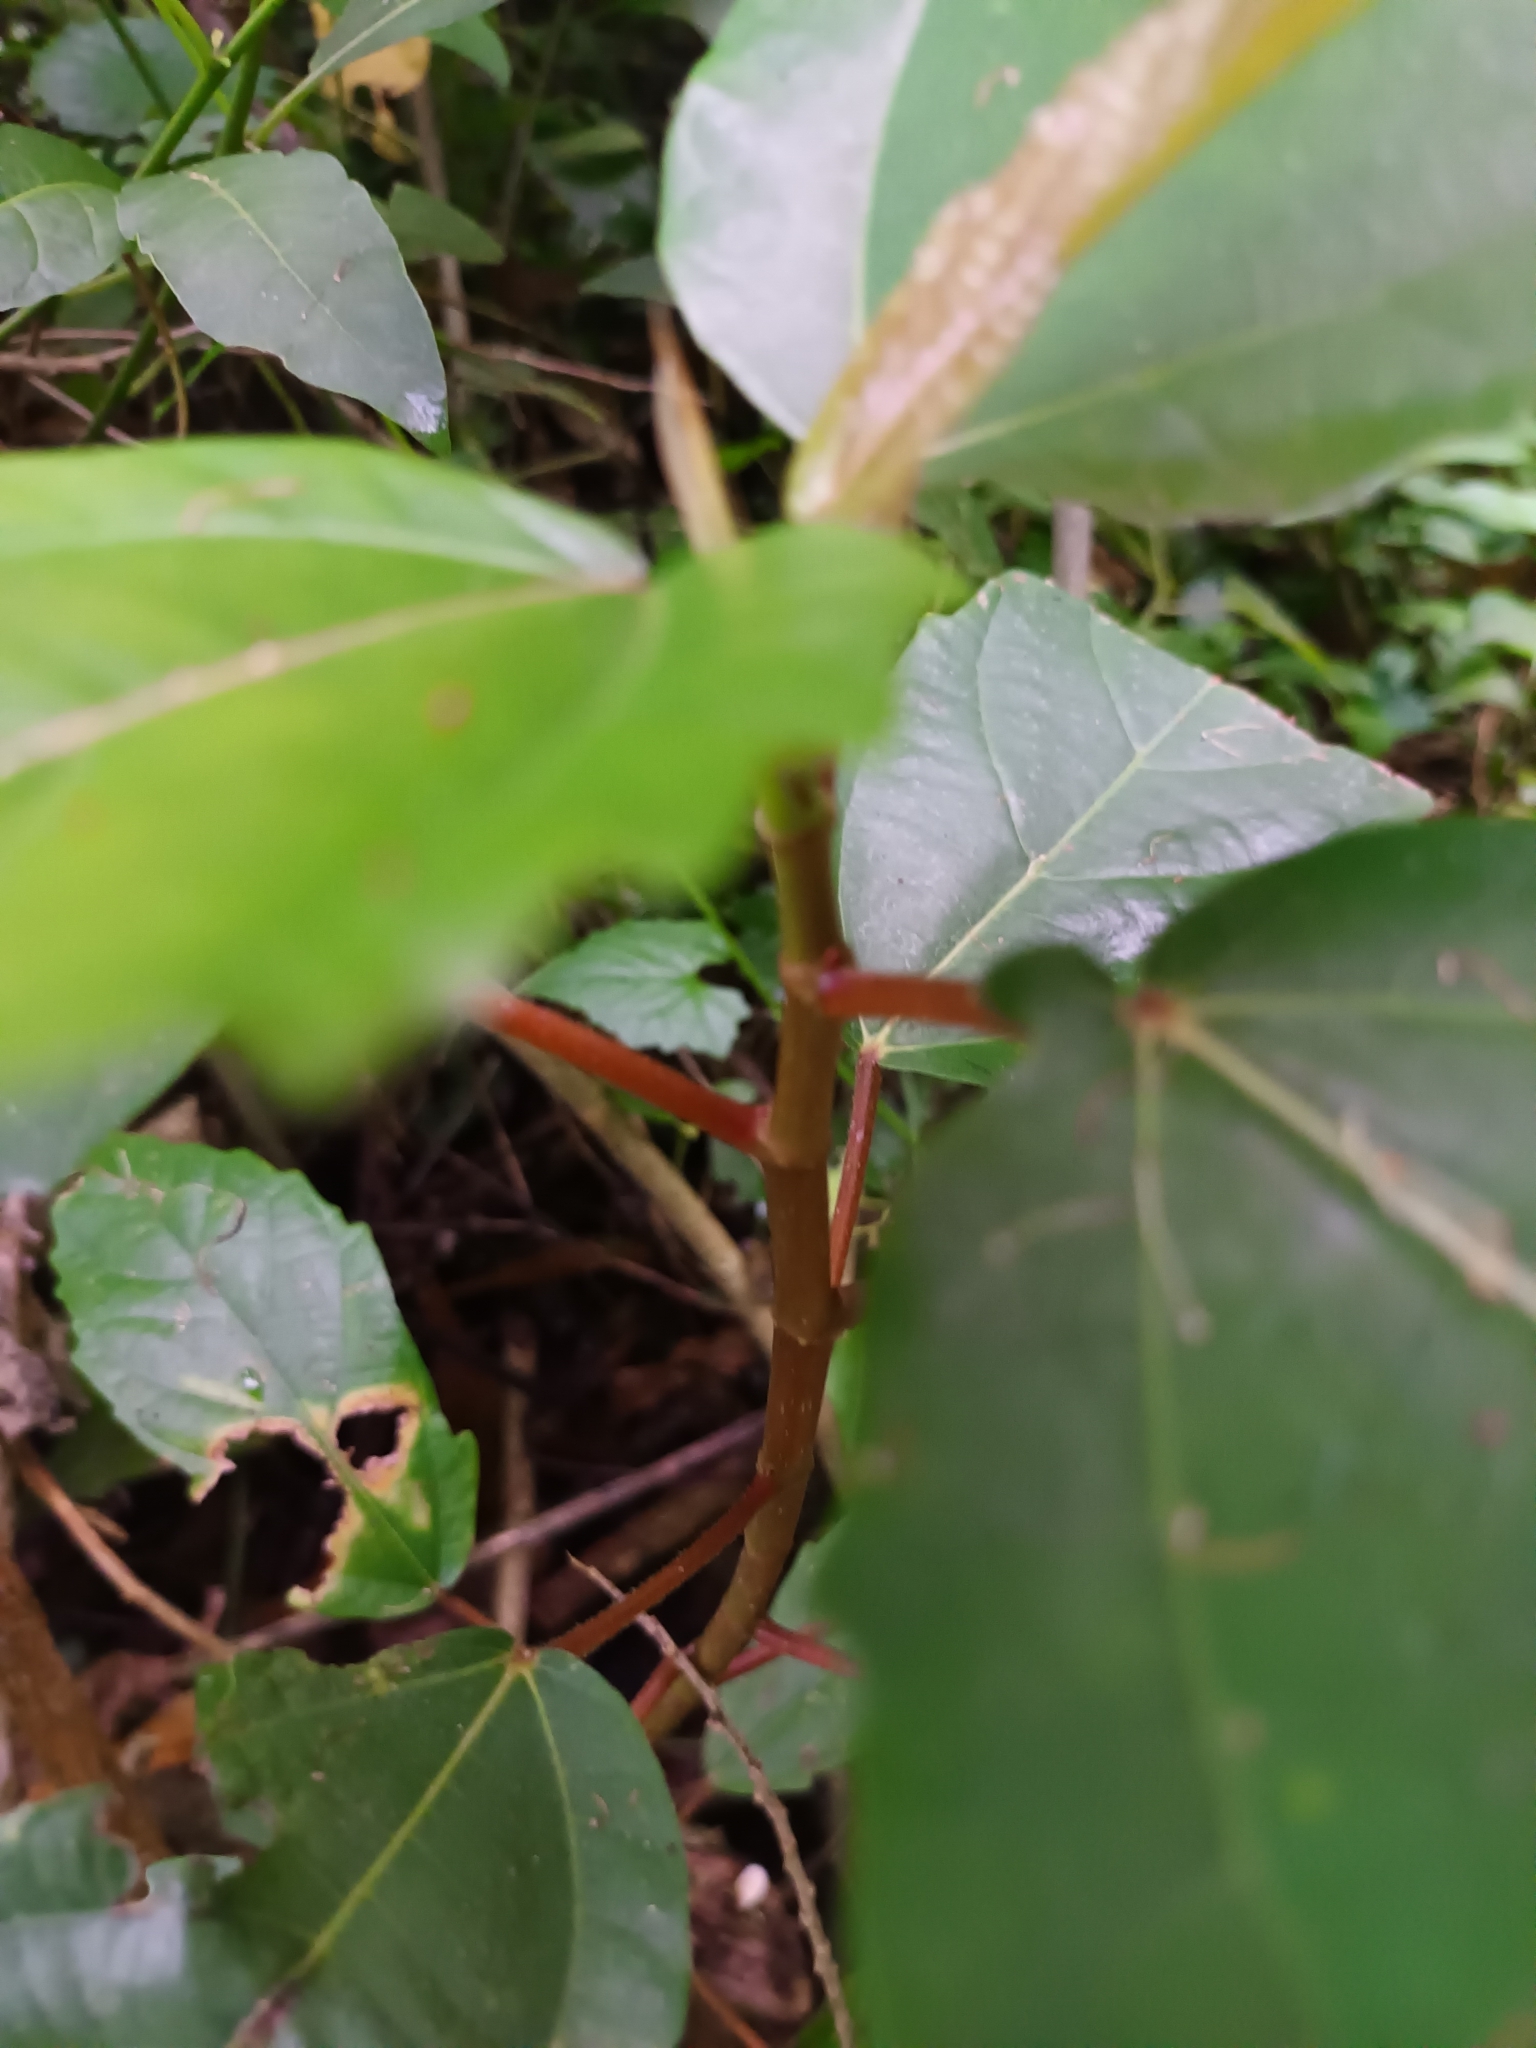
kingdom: Plantae
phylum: Tracheophyta
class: Magnoliopsida
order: Rosales
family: Moraceae
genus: Ficus
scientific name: Ficus sur
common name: Cape fig
